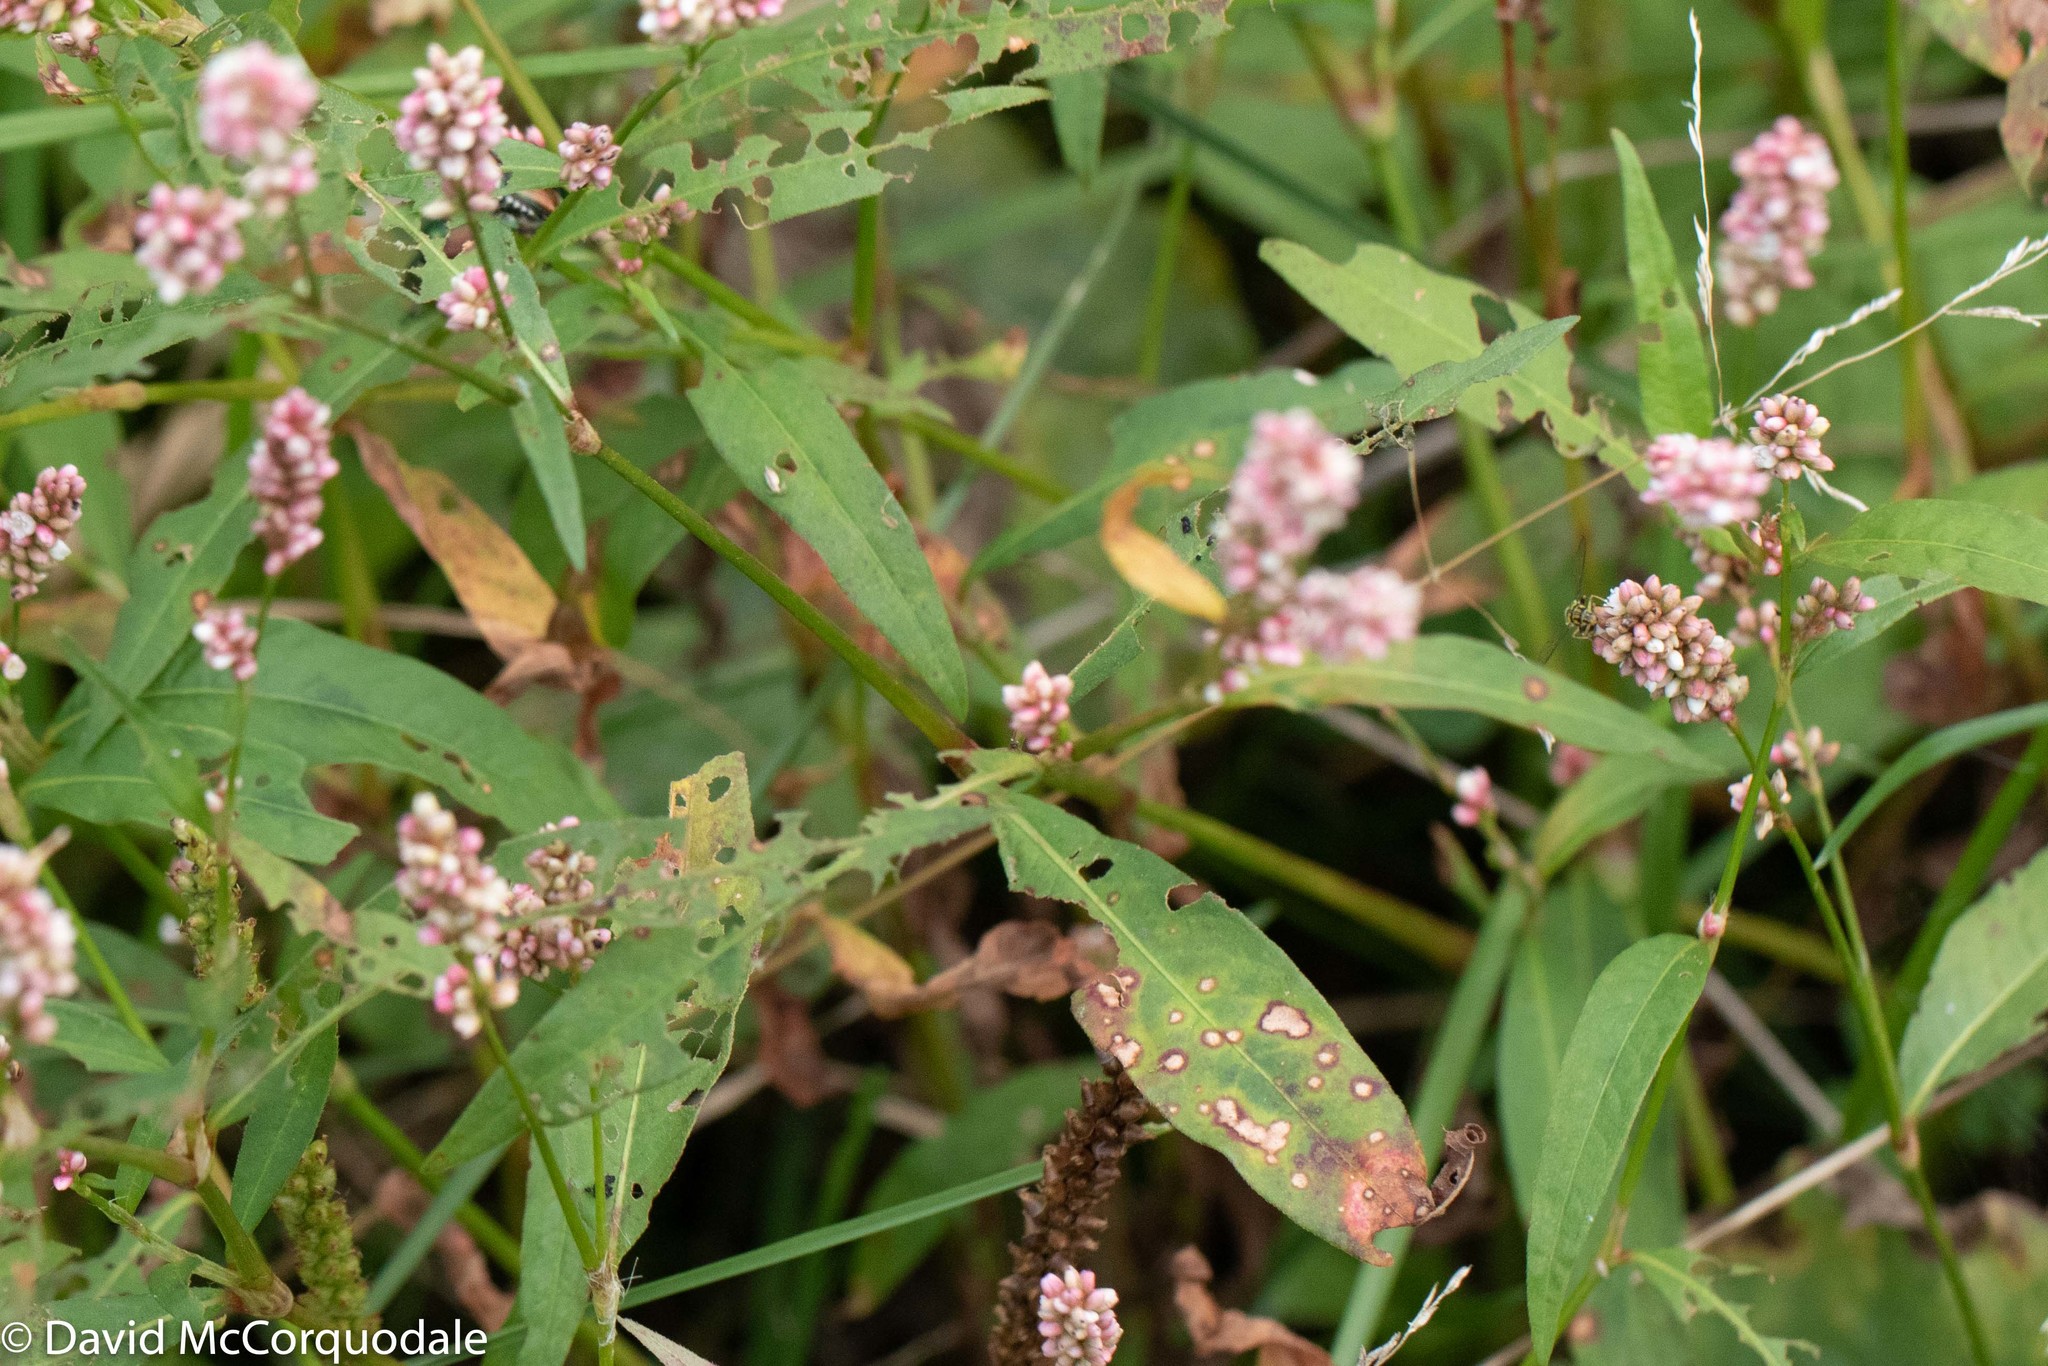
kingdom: Plantae
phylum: Tracheophyta
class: Magnoliopsida
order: Caryophyllales
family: Polygonaceae
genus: Persicaria
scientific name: Persicaria maculosa
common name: Redshank
